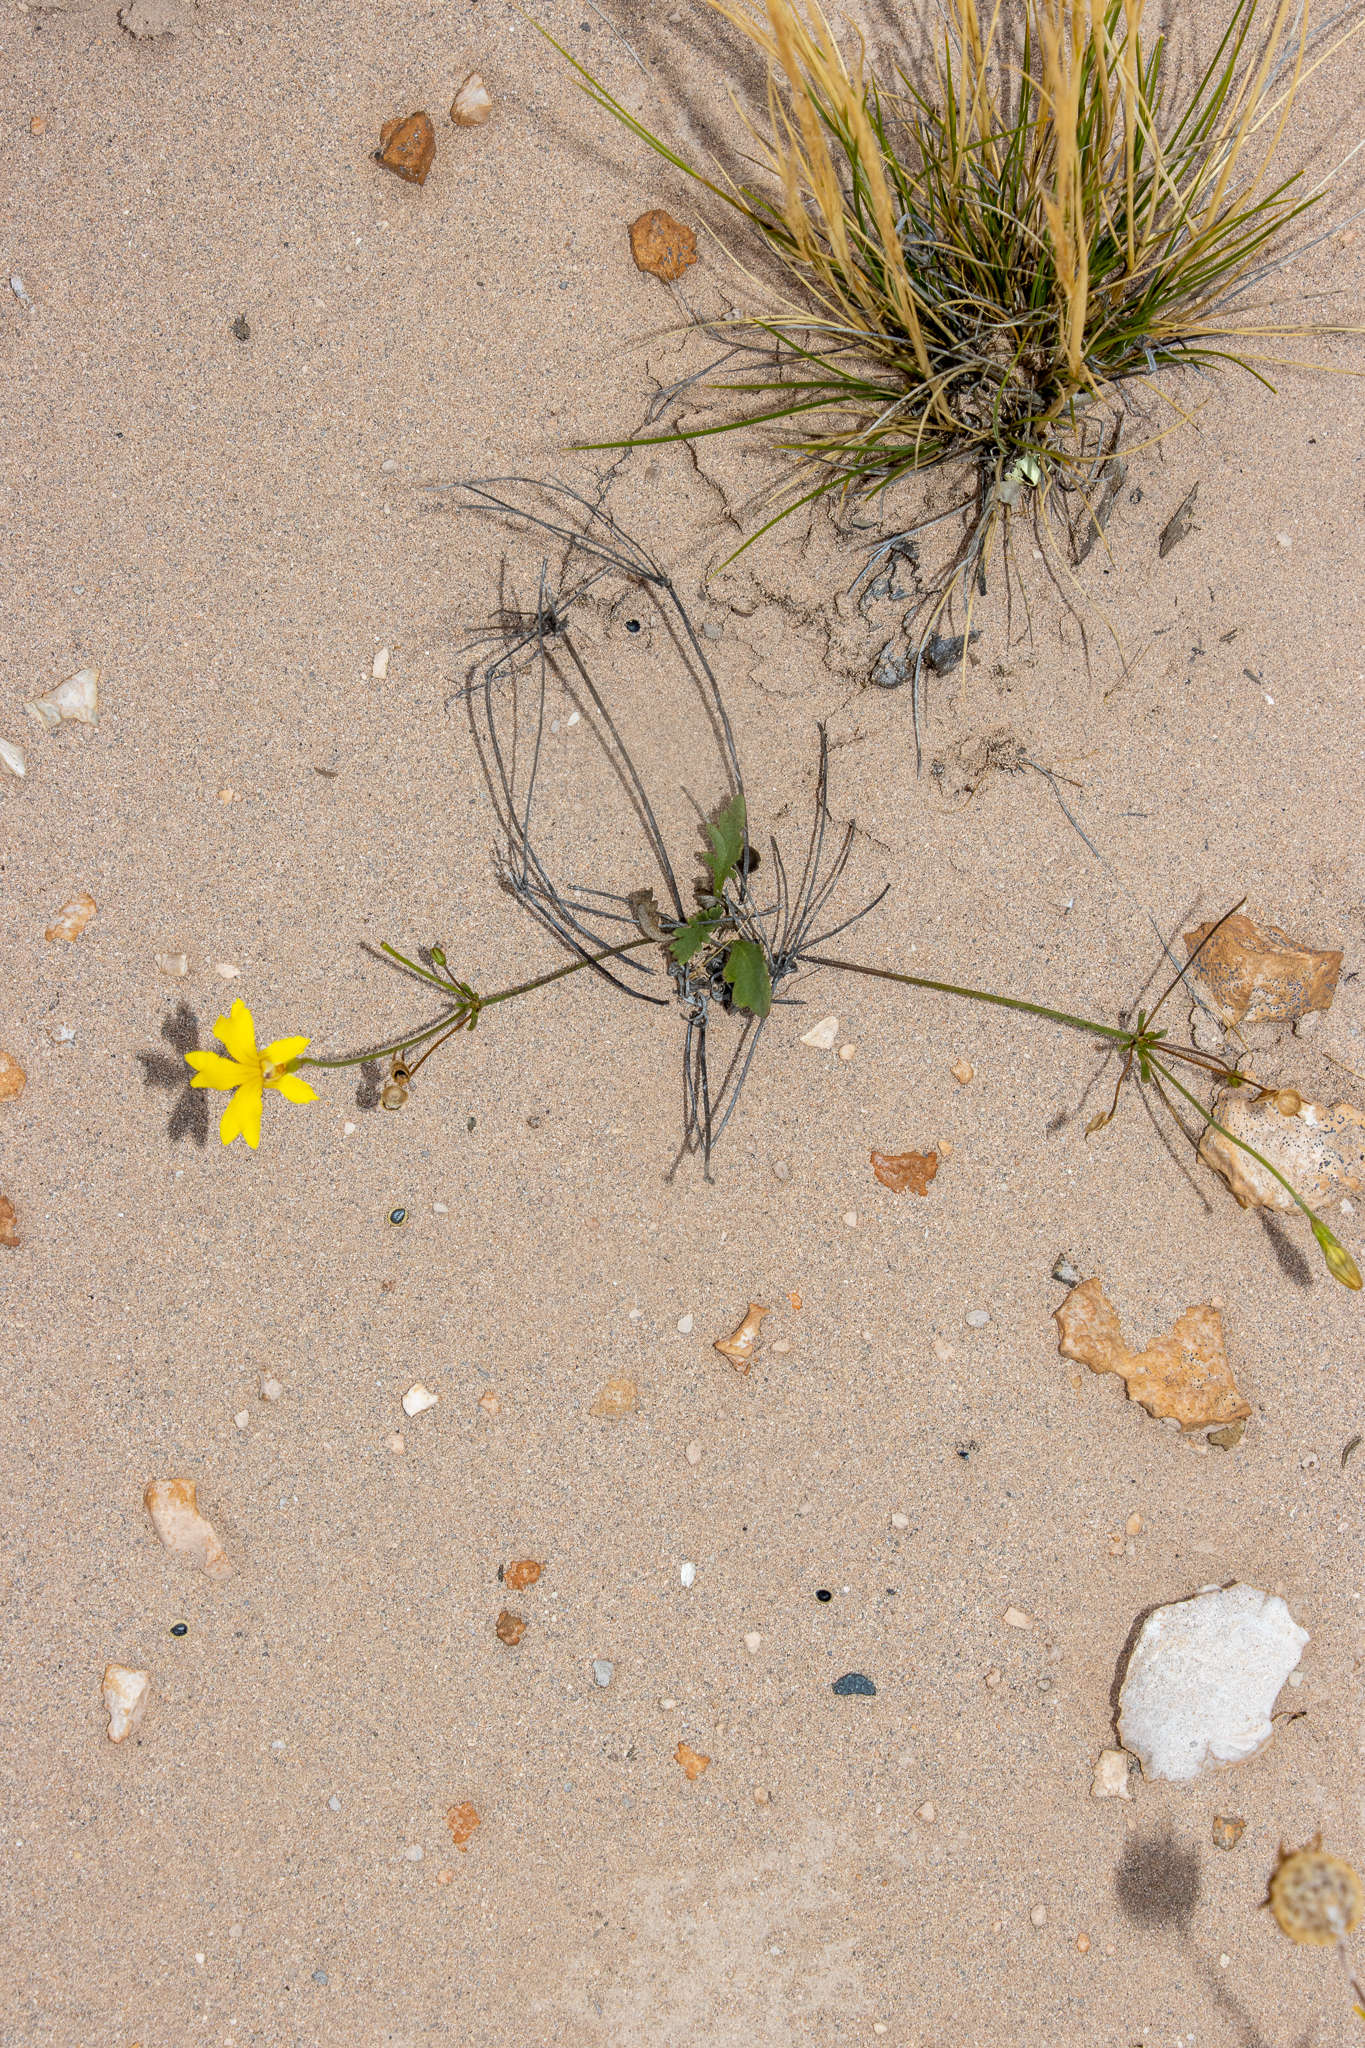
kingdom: Plantae
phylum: Tracheophyta
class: Magnoliopsida
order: Asterales
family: Goodeniaceae
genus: Goodenia
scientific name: Goodenia pinnatifida
